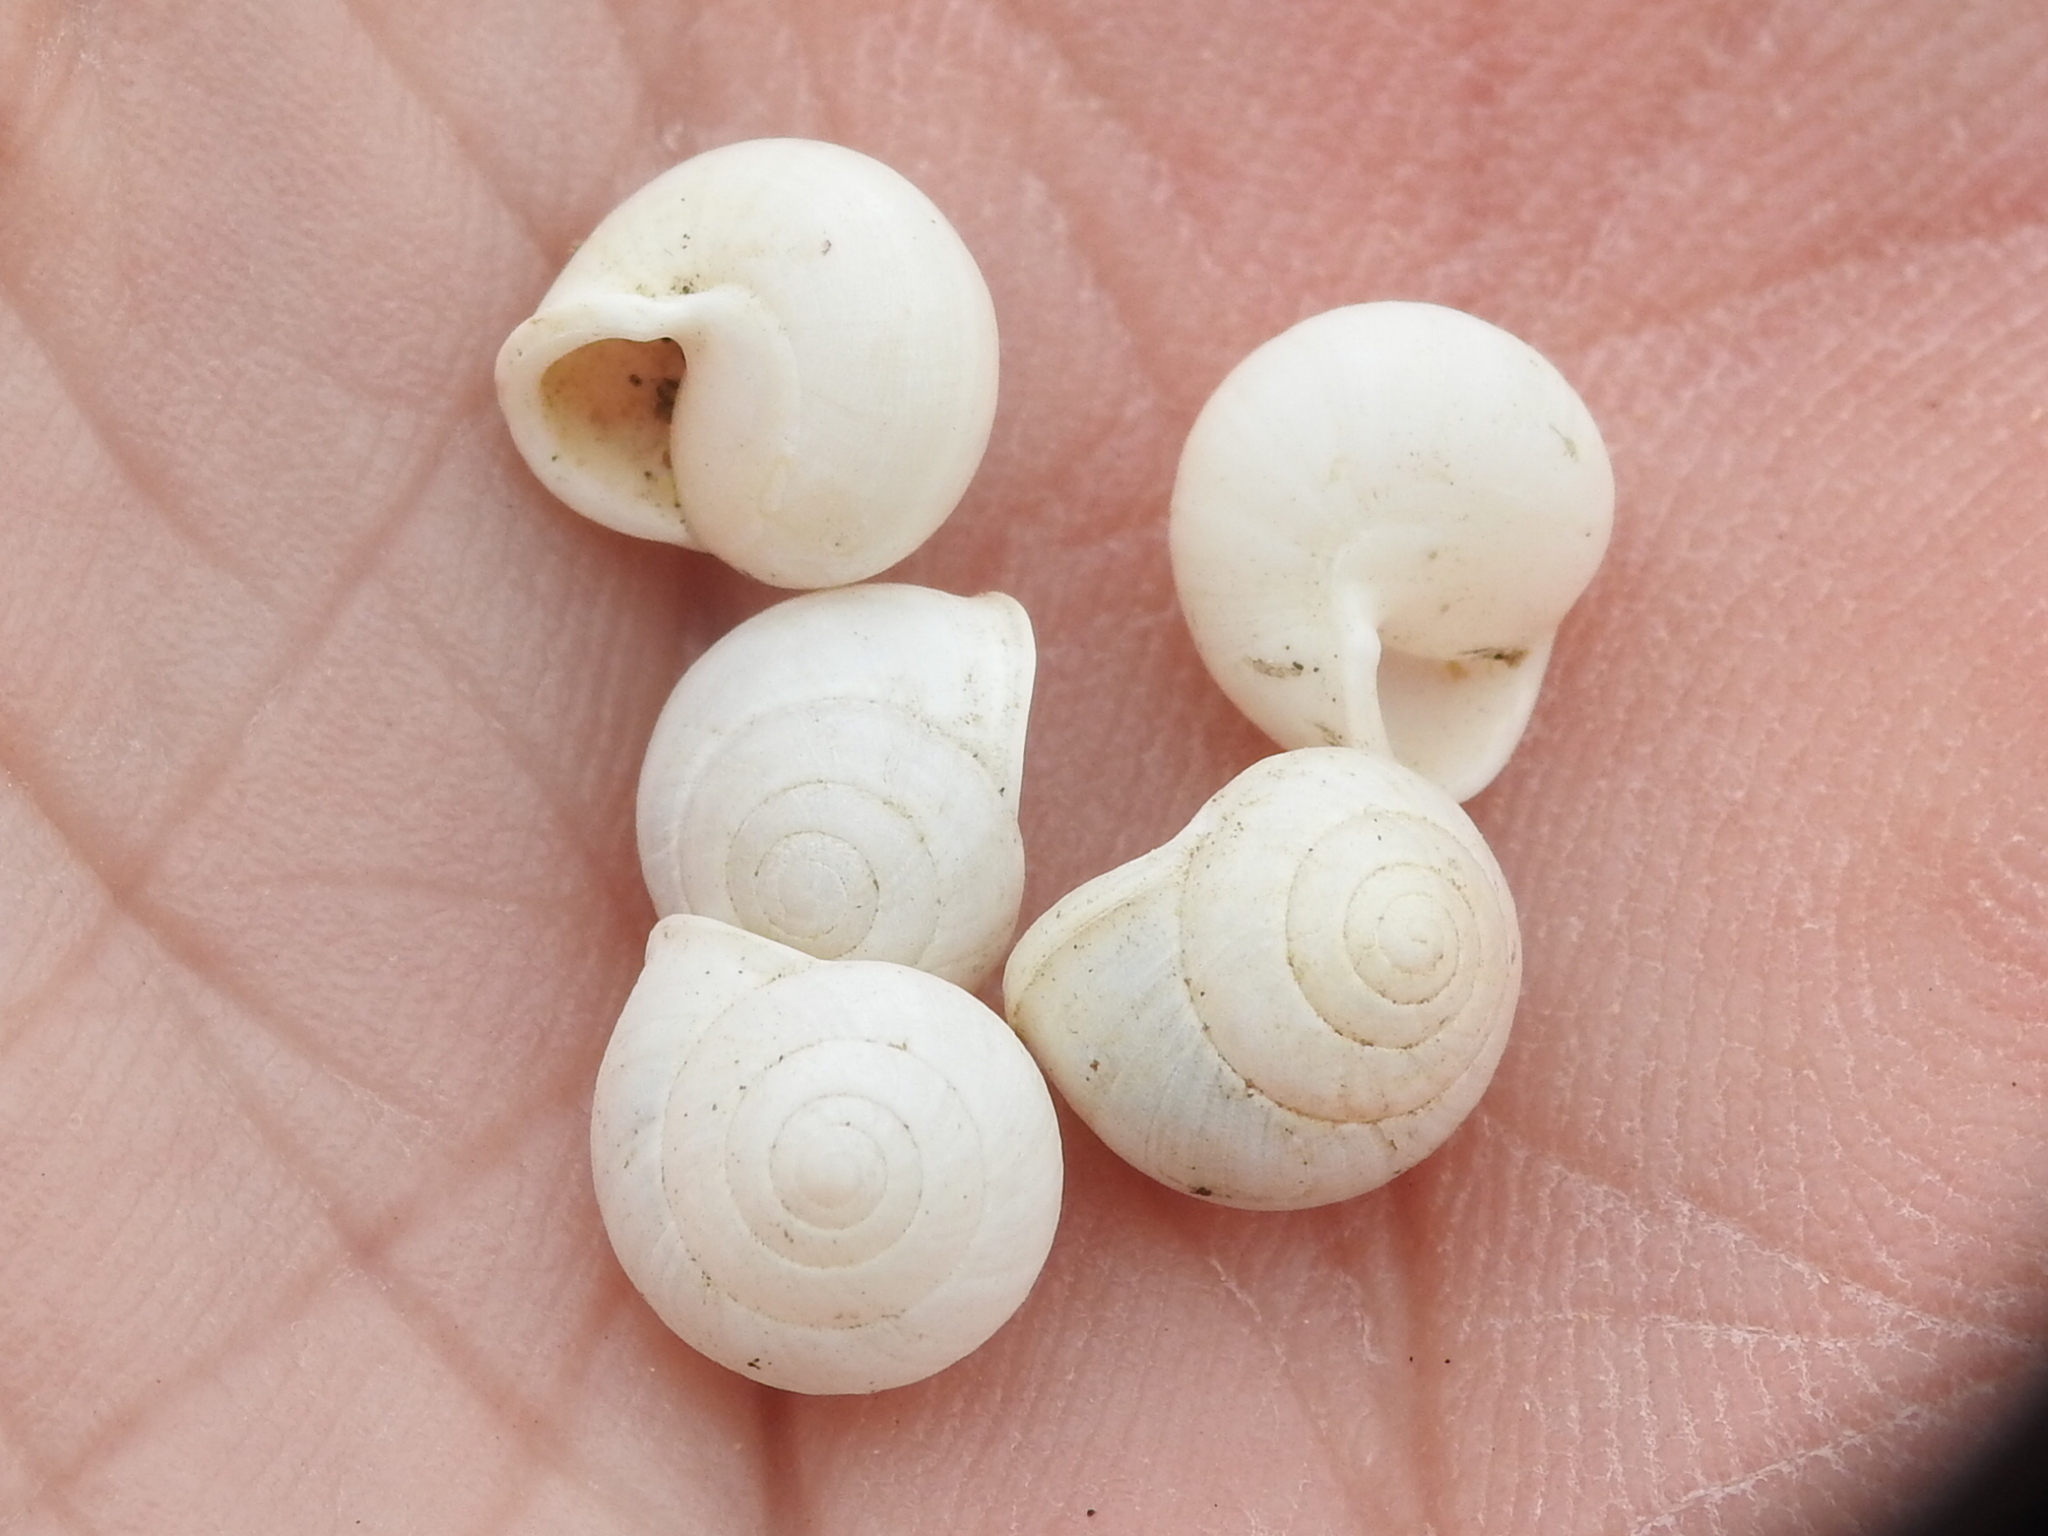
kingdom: Animalia
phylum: Mollusca
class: Gastropoda
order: Cycloneritida
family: Helicinidae
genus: Helicina
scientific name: Helicina orbiculata
